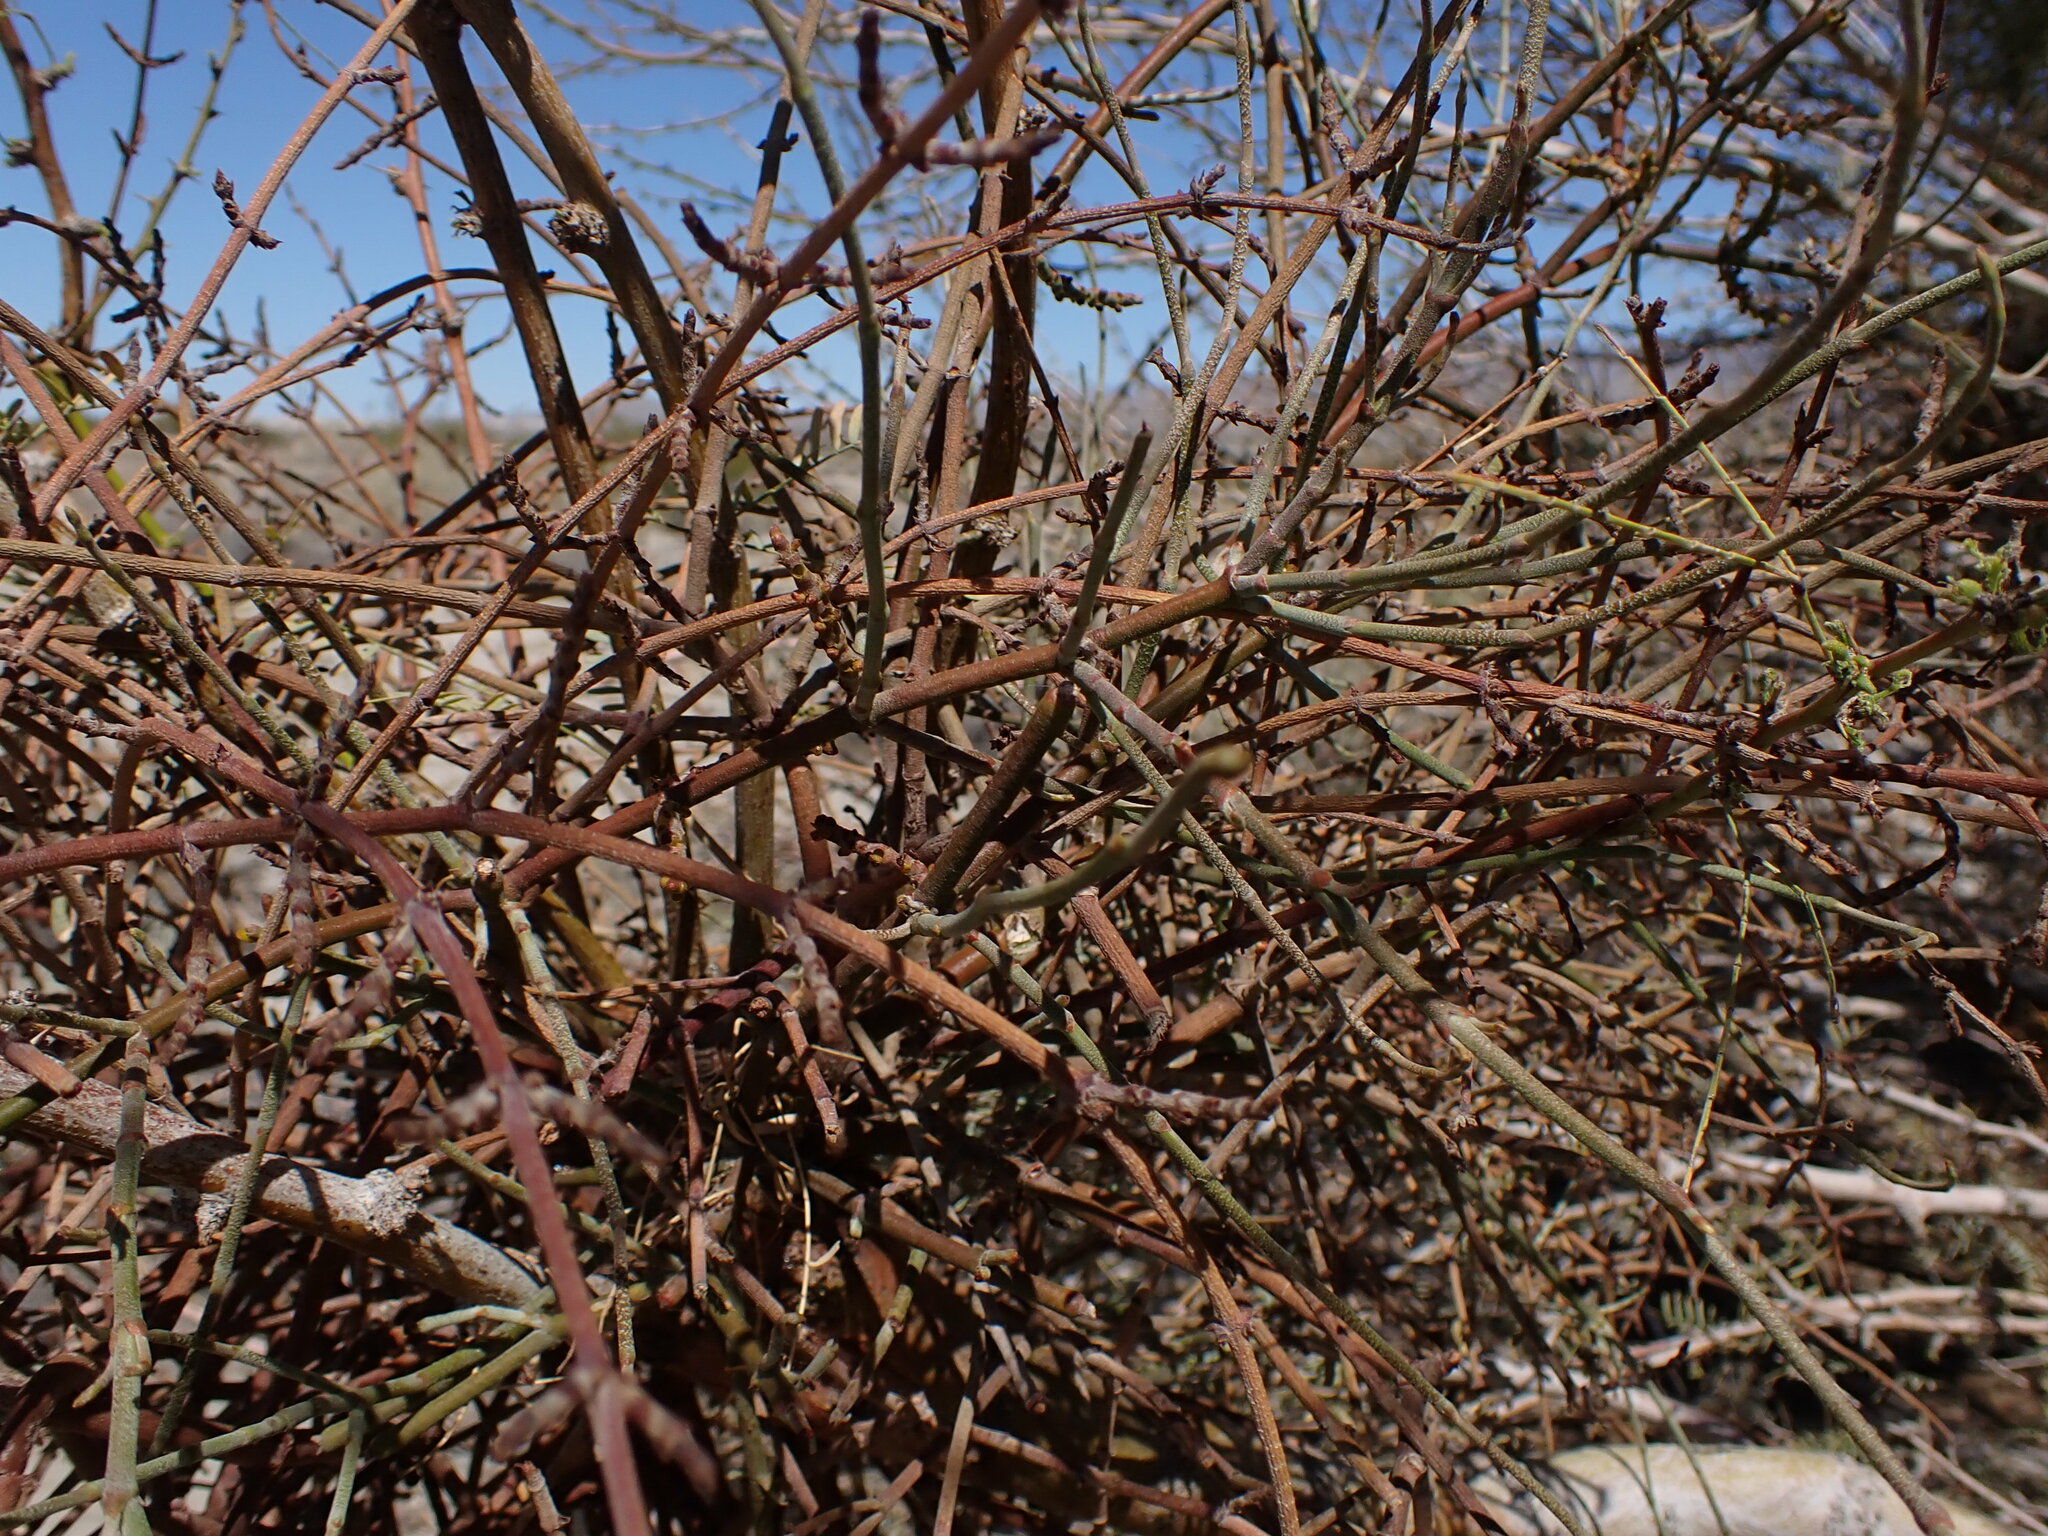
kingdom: Plantae
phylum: Tracheophyta
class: Magnoliopsida
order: Santalales
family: Viscaceae
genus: Phoradendron
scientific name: Phoradendron californicum
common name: Acacia mistletoe
